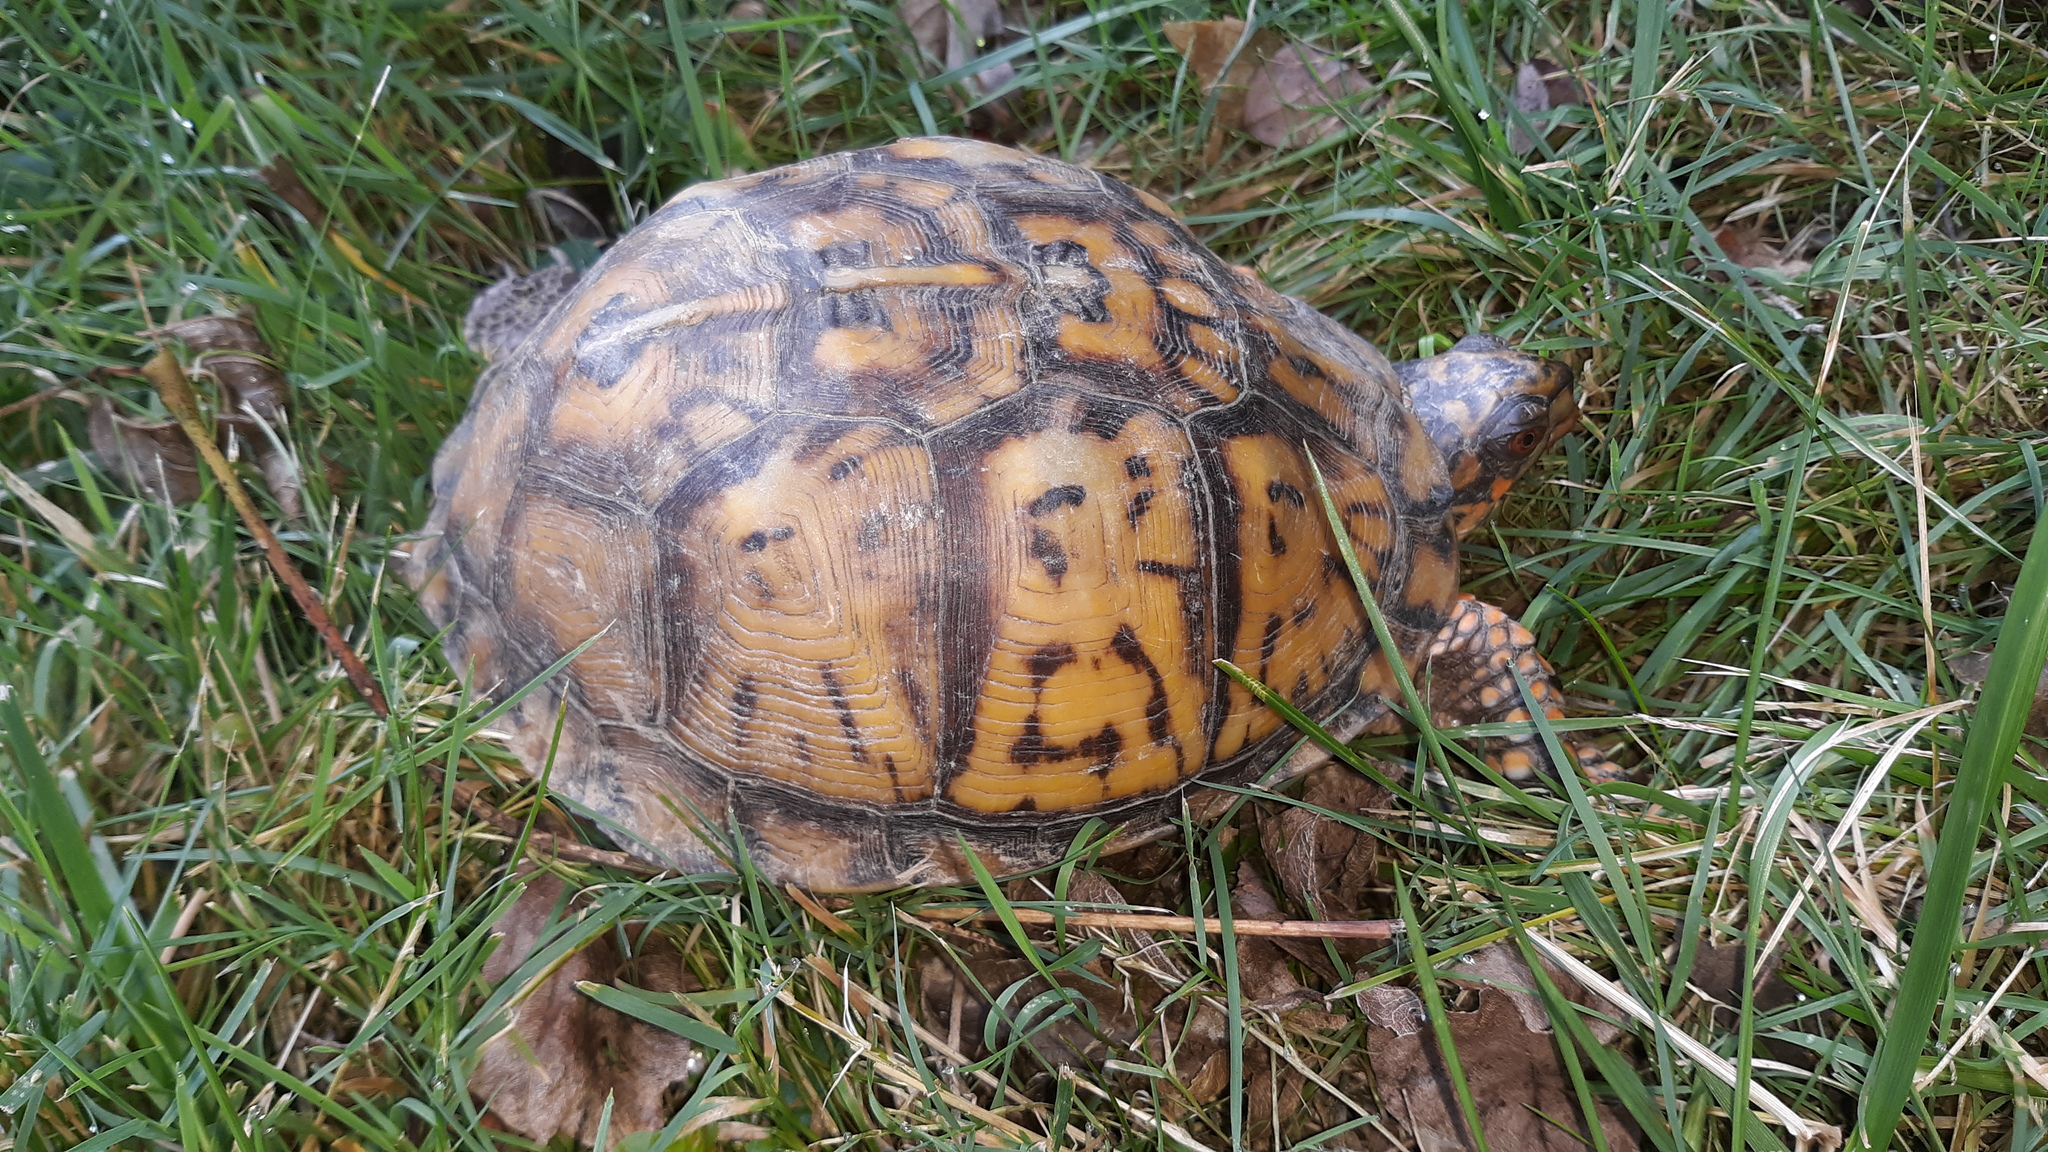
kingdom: Animalia
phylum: Chordata
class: Testudines
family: Emydidae
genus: Terrapene
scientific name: Terrapene carolina
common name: Common box turtle
